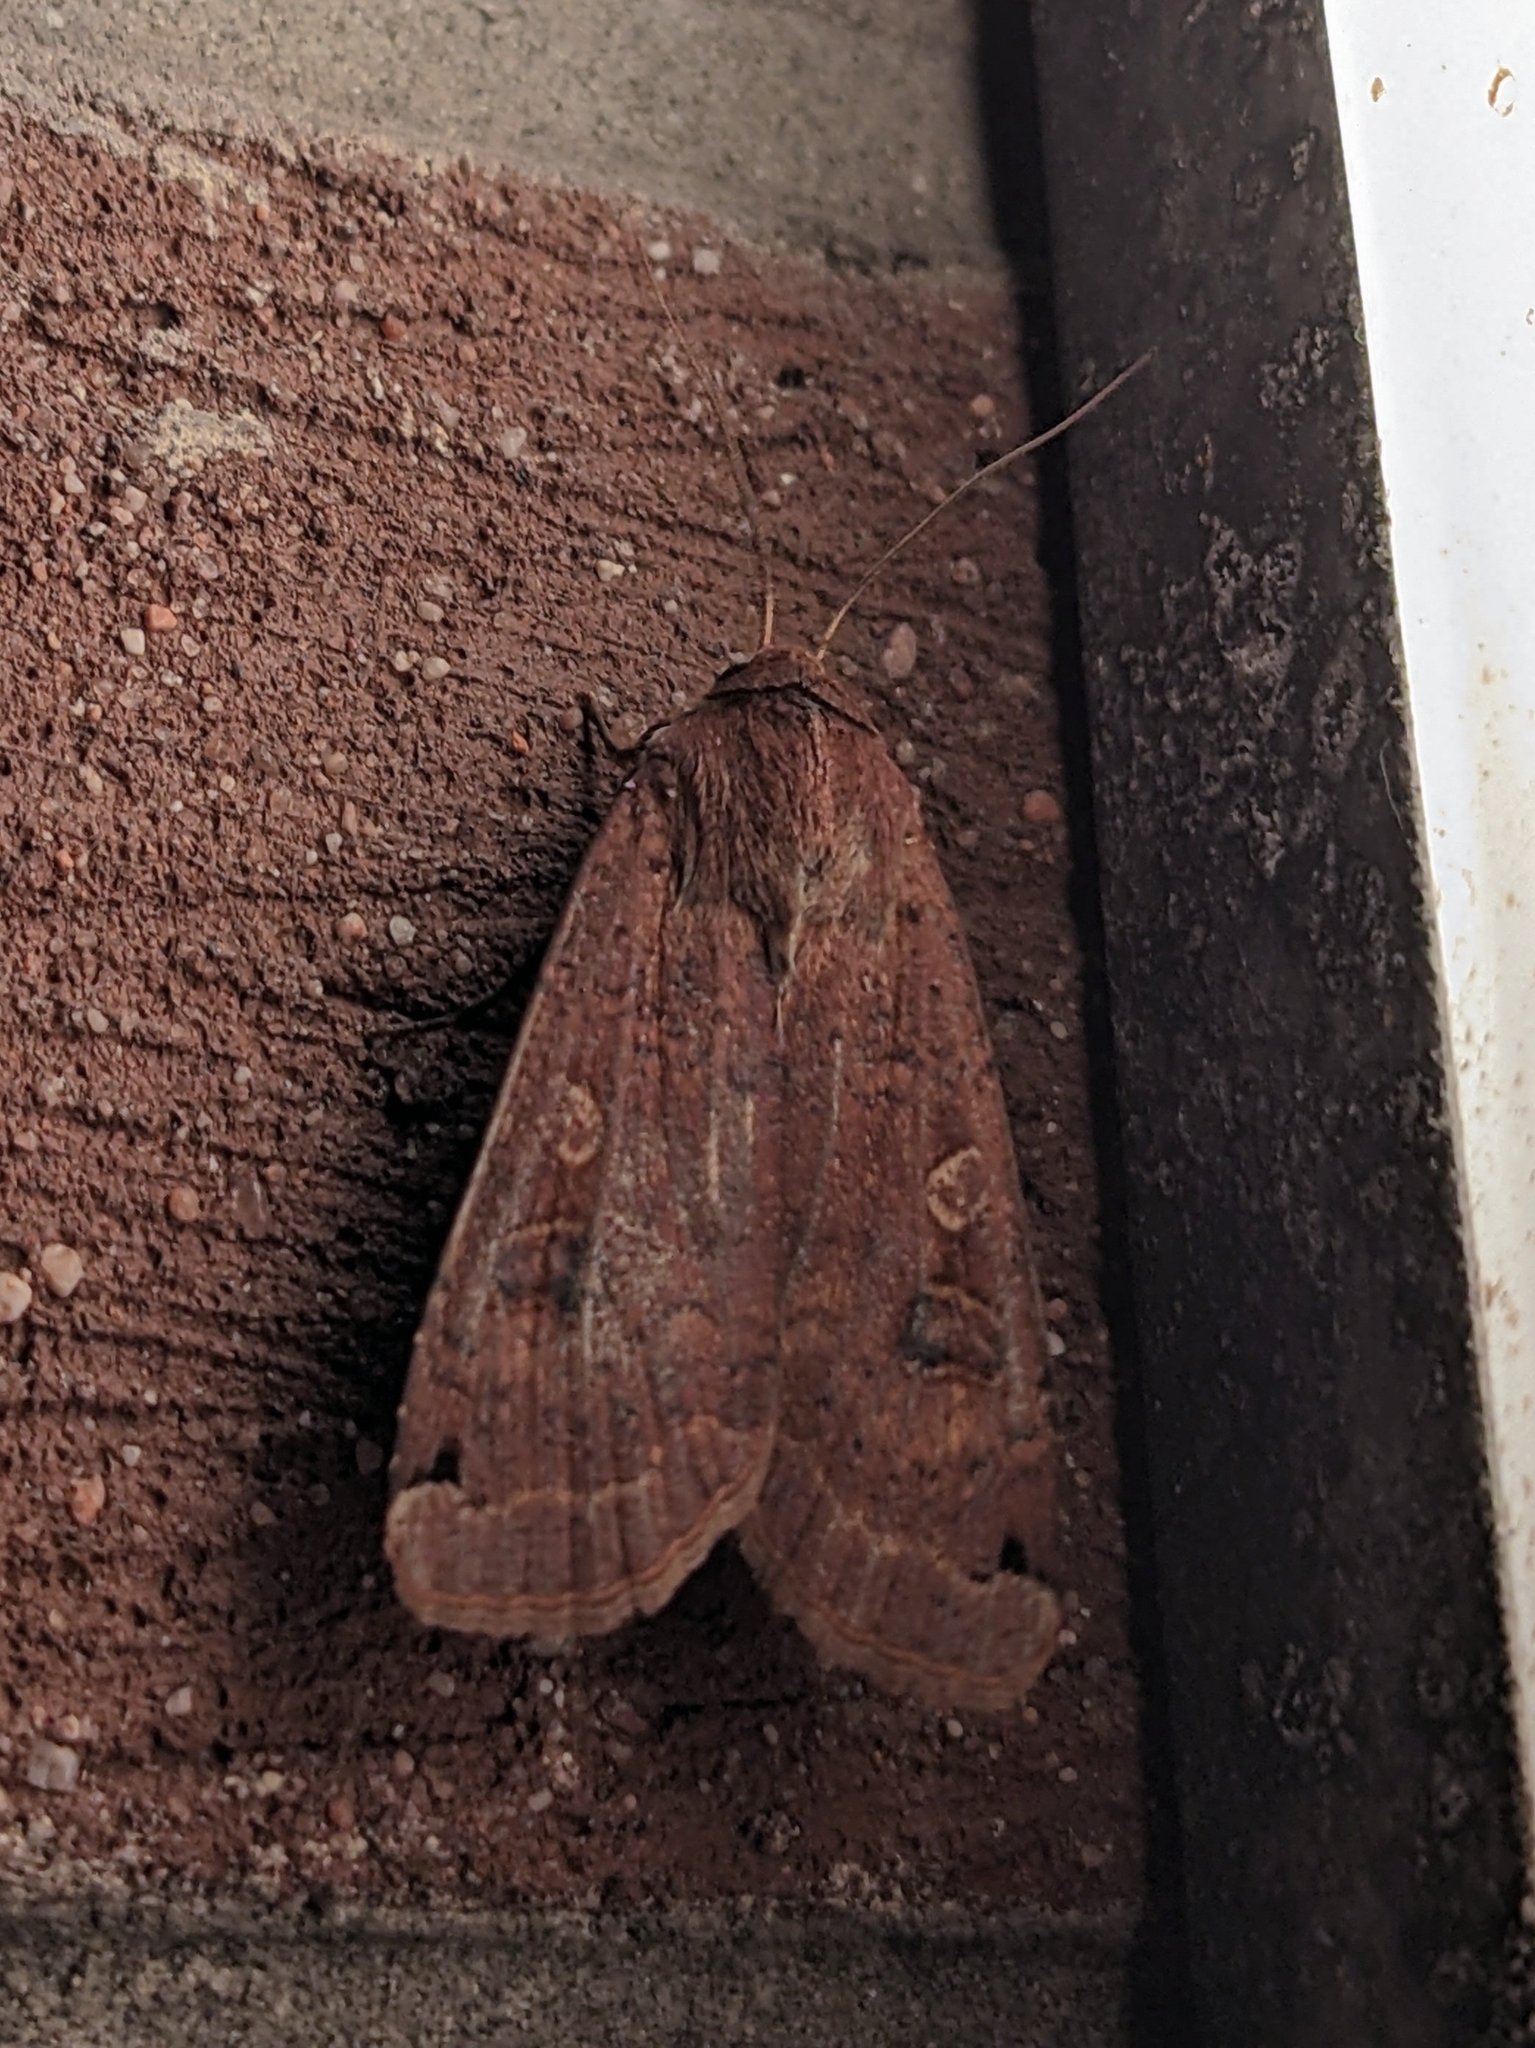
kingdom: Animalia
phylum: Arthropoda
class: Insecta
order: Lepidoptera
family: Noctuidae
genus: Noctua
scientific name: Noctua pronuba
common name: Large yellow underwing
